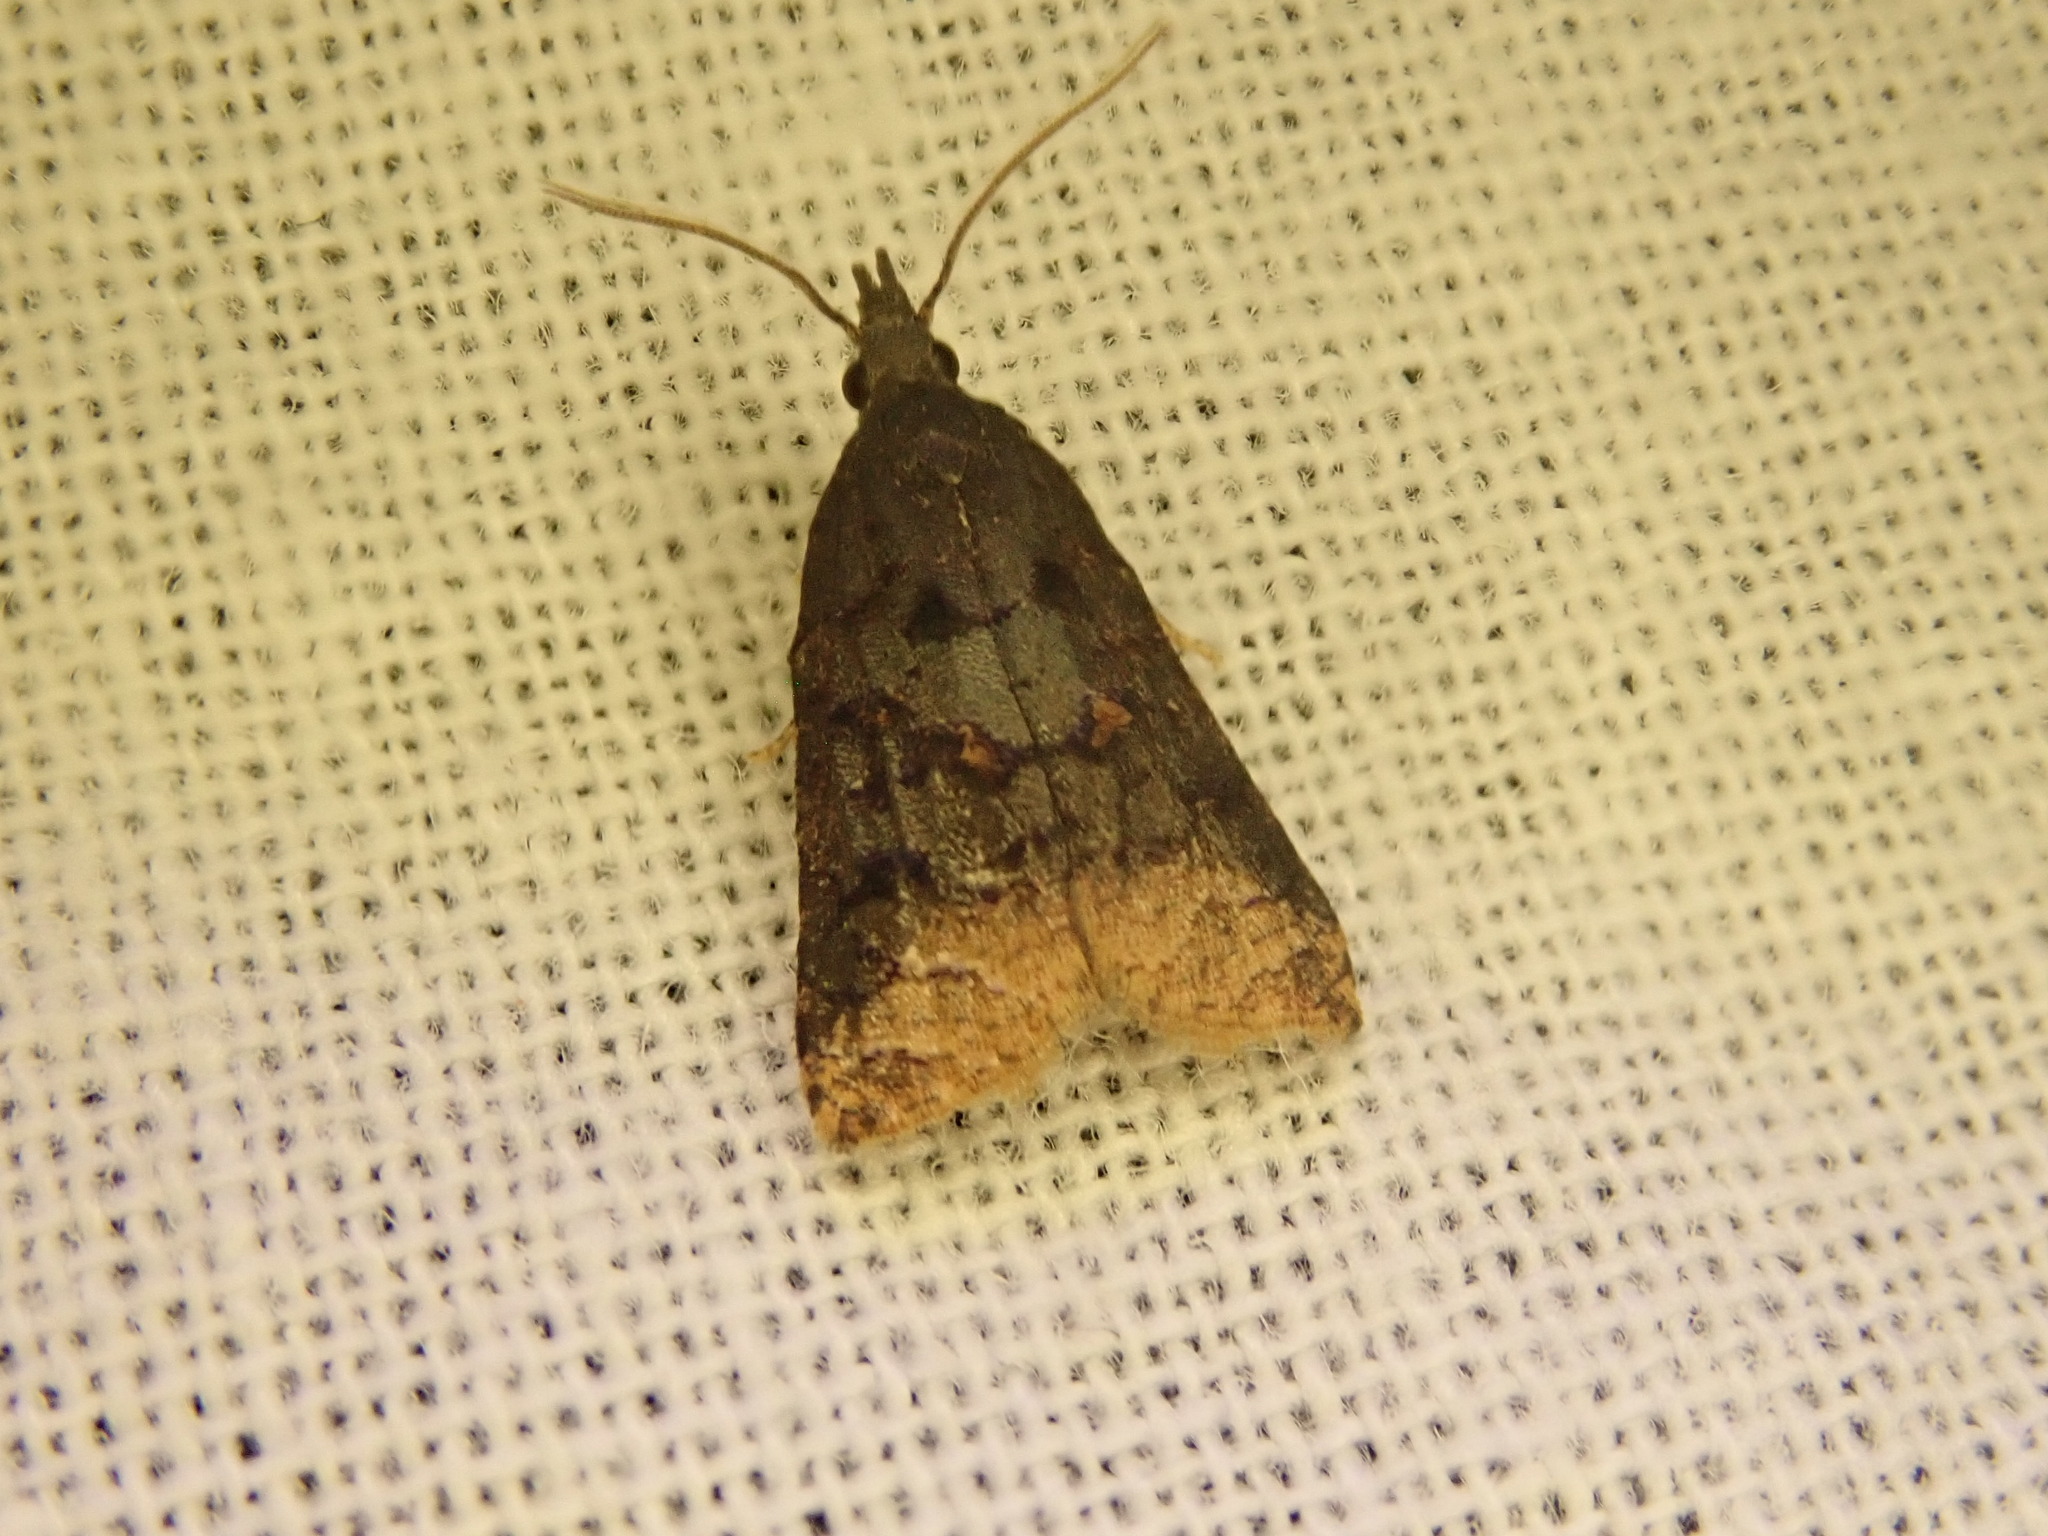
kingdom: Animalia
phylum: Arthropoda
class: Insecta
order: Lepidoptera
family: Tortricidae
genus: Platynota
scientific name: Platynota semiustana
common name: Singed platynota
